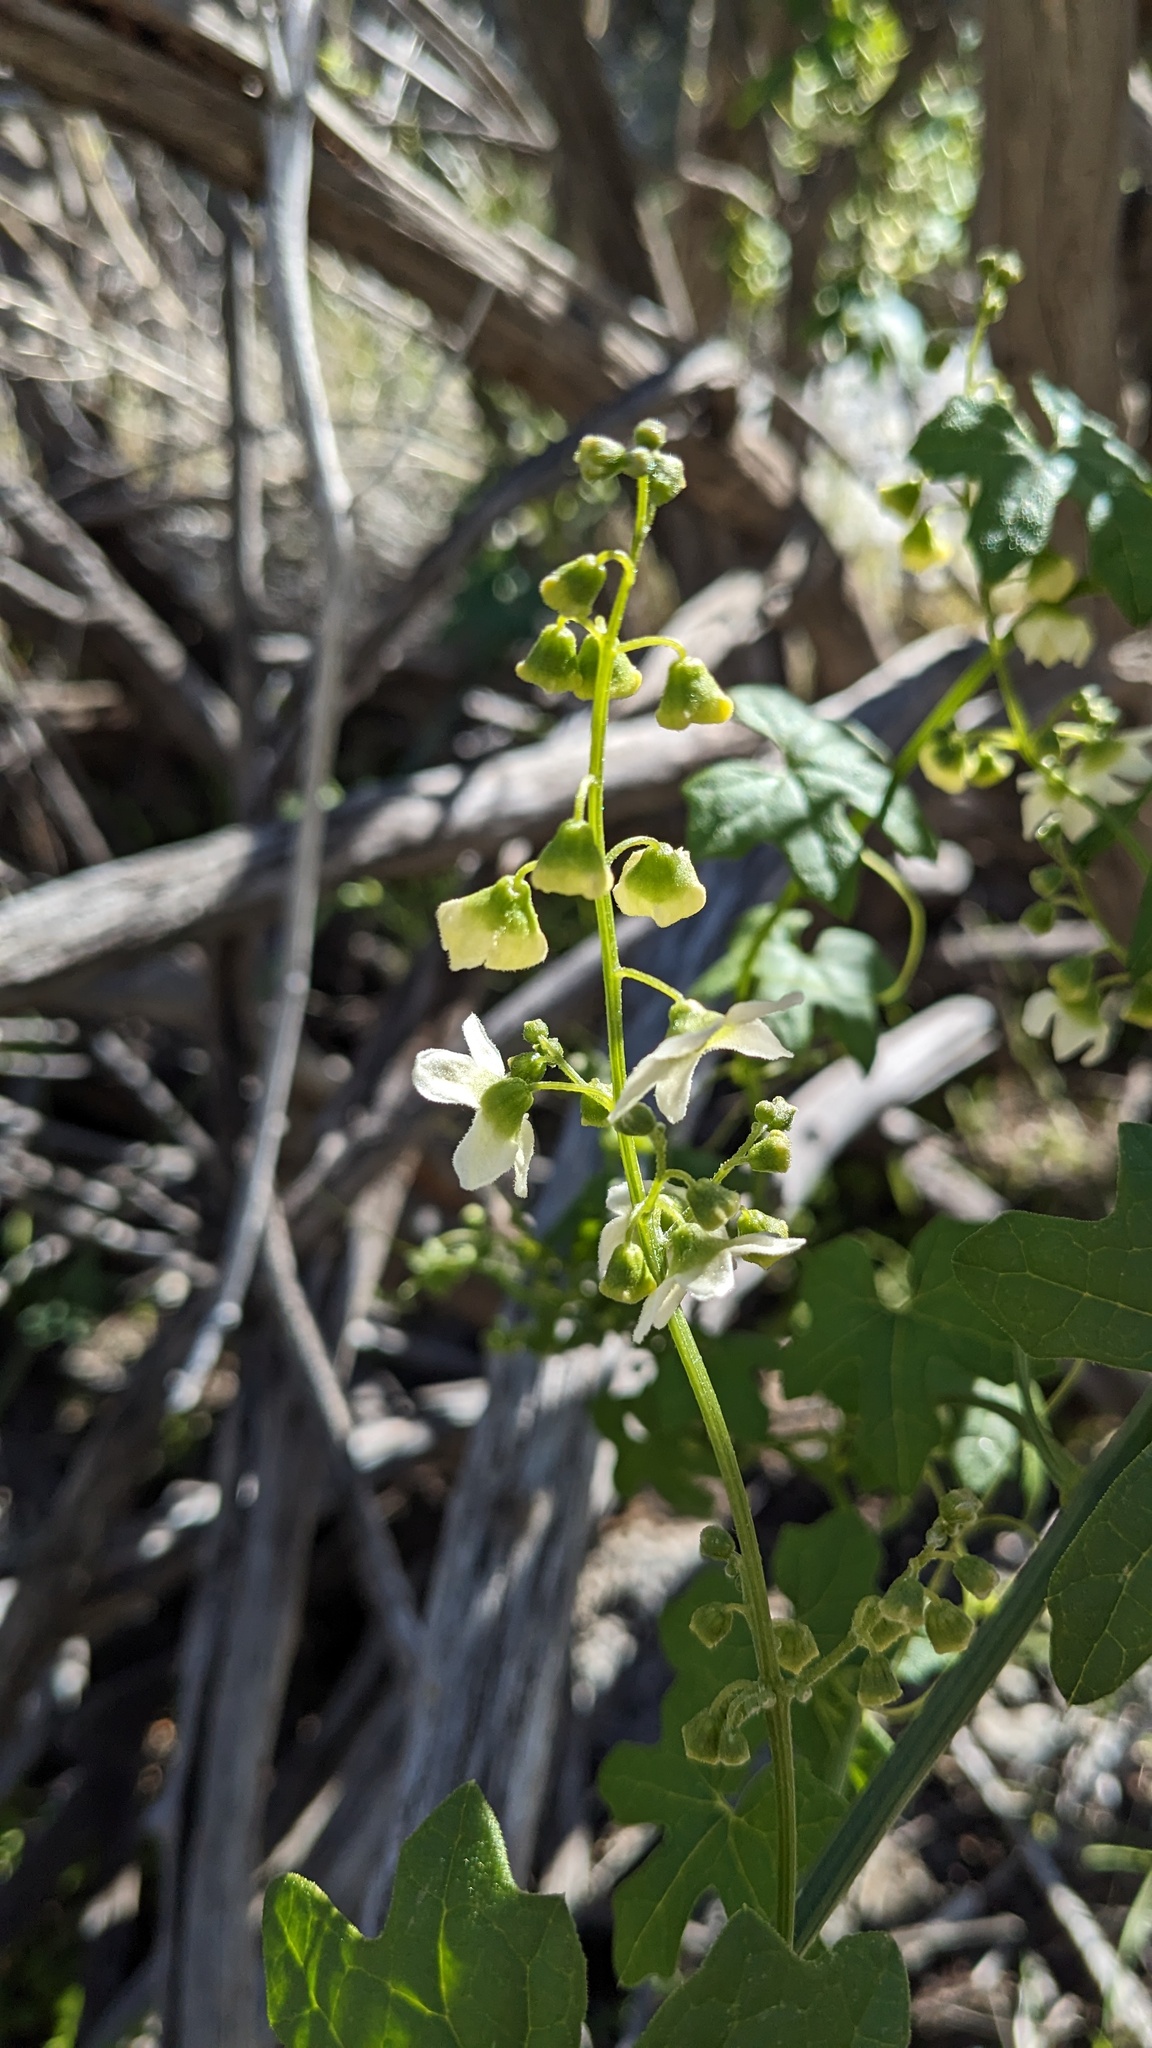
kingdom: Plantae
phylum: Tracheophyta
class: Magnoliopsida
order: Cucurbitales
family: Cucurbitaceae
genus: Marah
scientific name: Marah macrocarpa
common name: Cucamonga manroot
